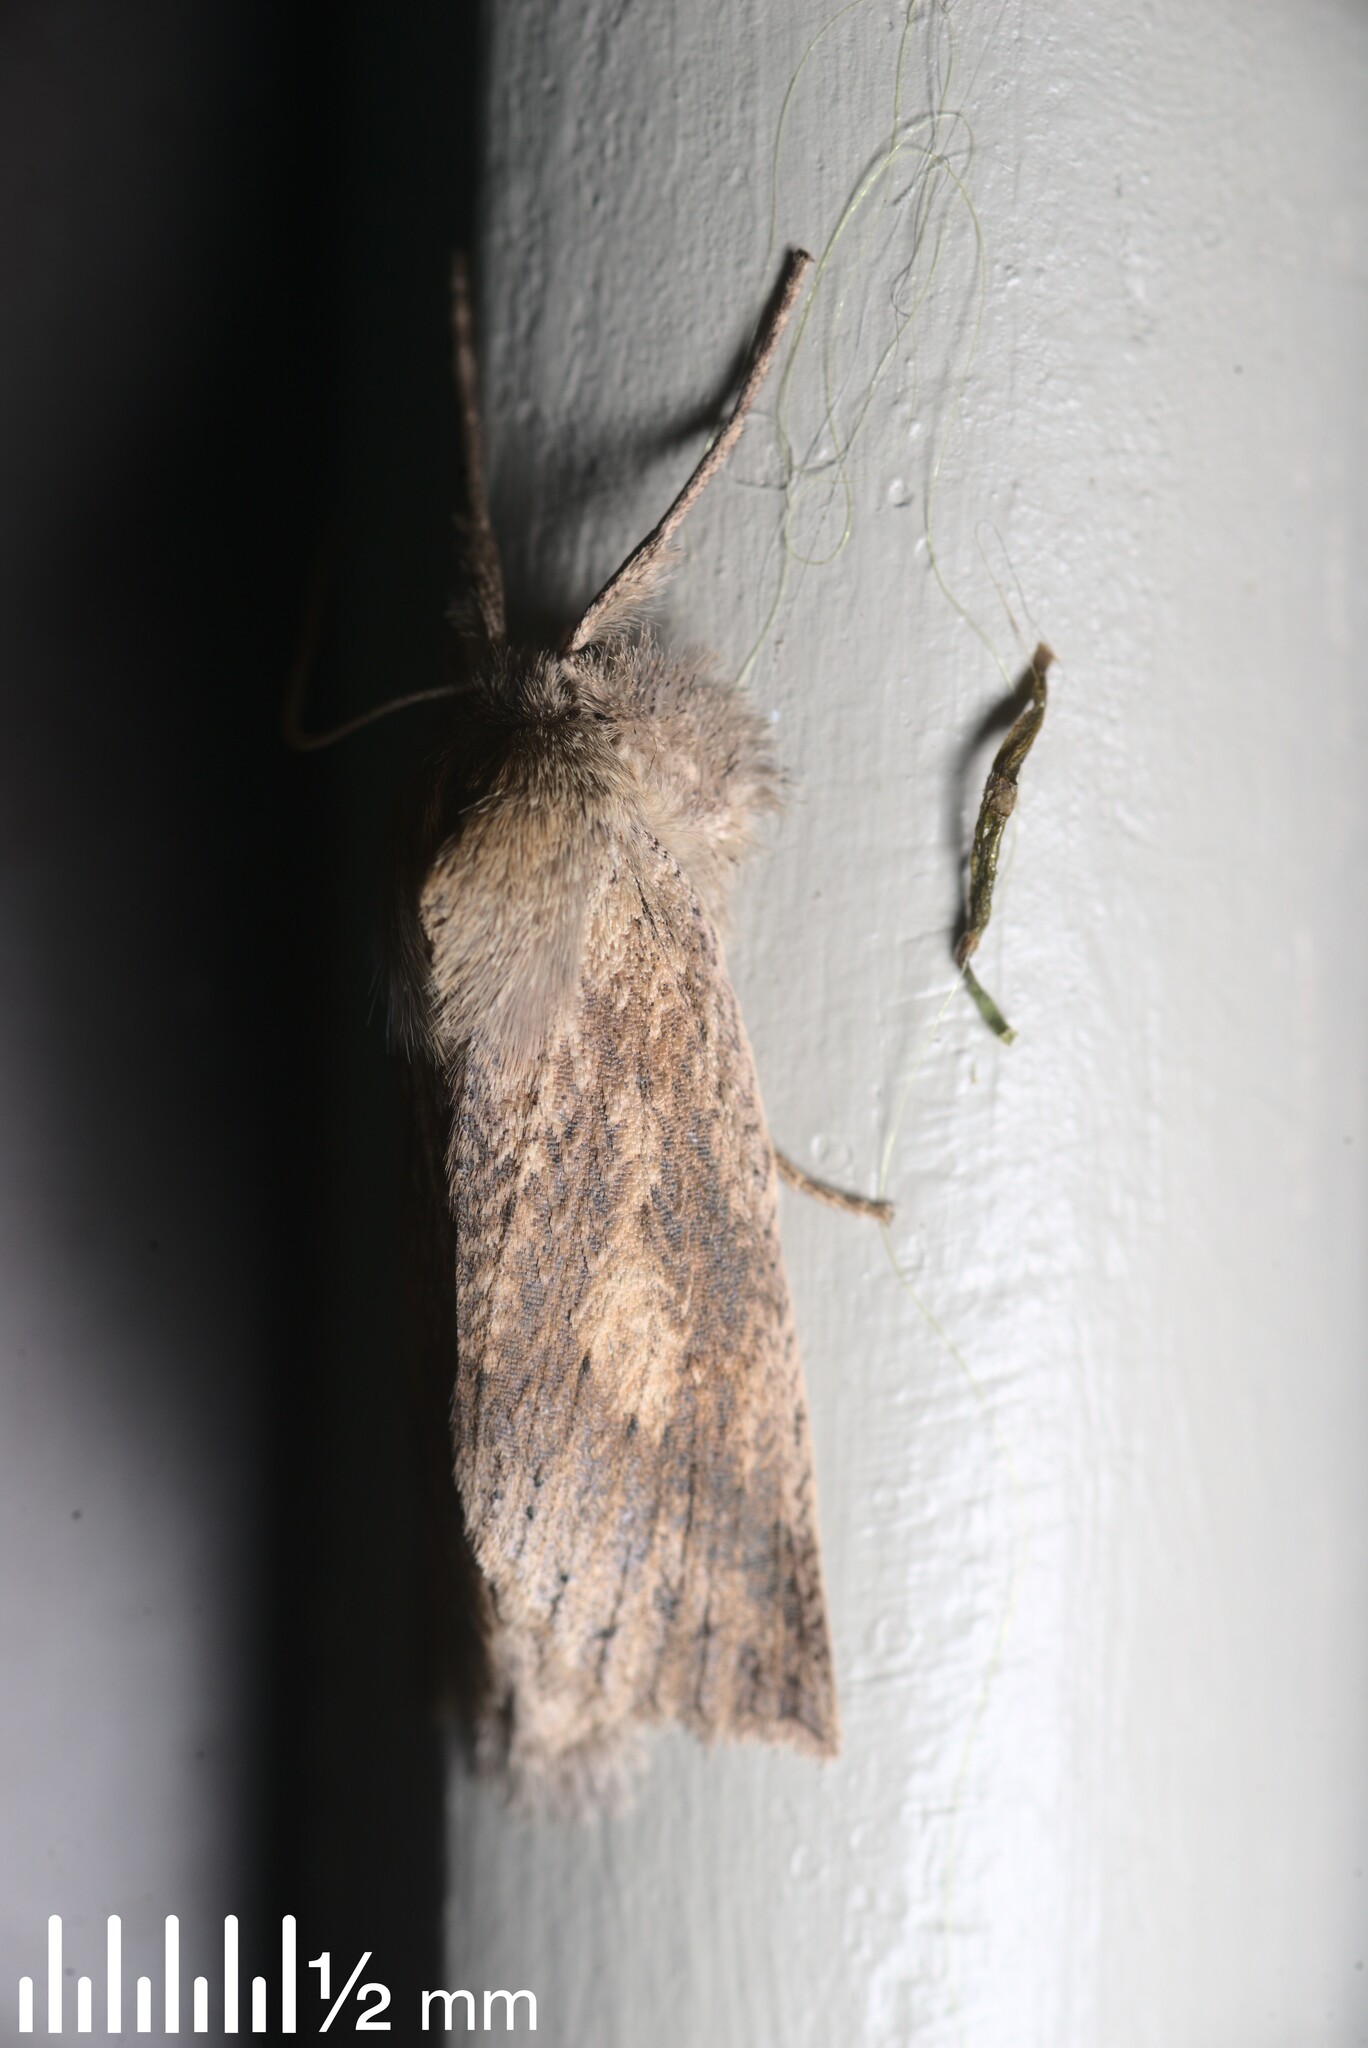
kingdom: Animalia
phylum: Arthropoda
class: Insecta
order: Lepidoptera
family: Geometridae
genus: Declana
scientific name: Declana leptomera
